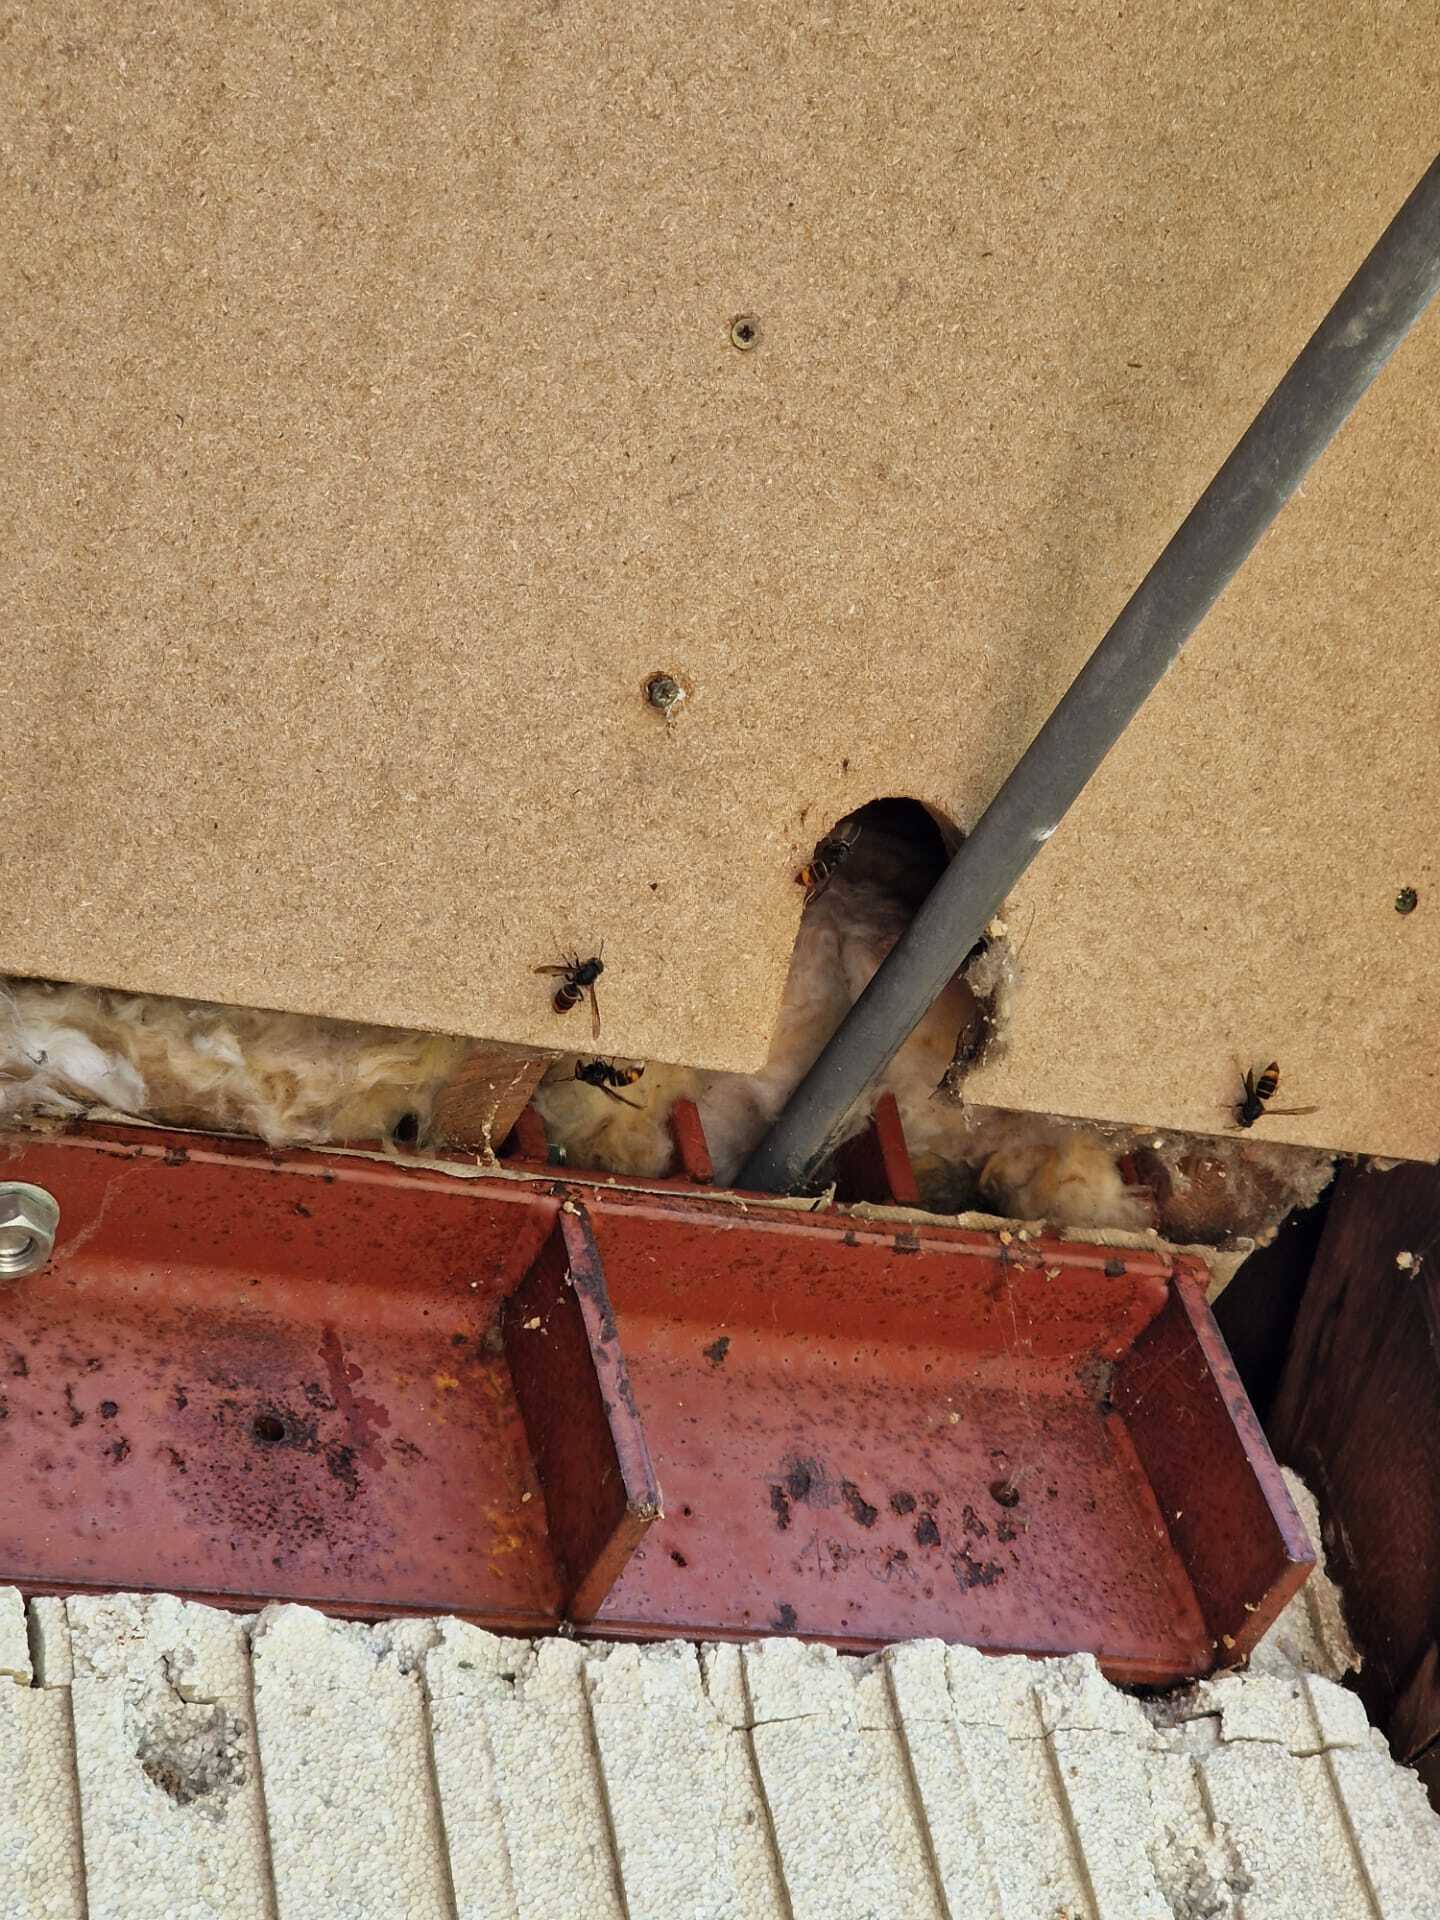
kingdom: Animalia
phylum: Arthropoda
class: Insecta
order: Hymenoptera
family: Vespidae
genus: Vespa
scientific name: Vespa velutina
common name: Asian hornet
